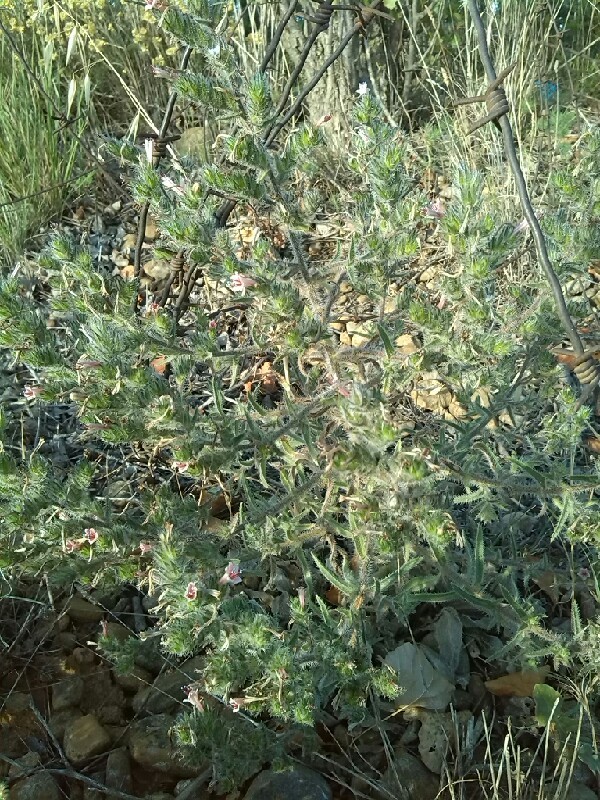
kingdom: Plantae
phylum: Tracheophyta
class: Magnoliopsida
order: Boraginales
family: Boraginaceae
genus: Echium
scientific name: Echium asperrimum
